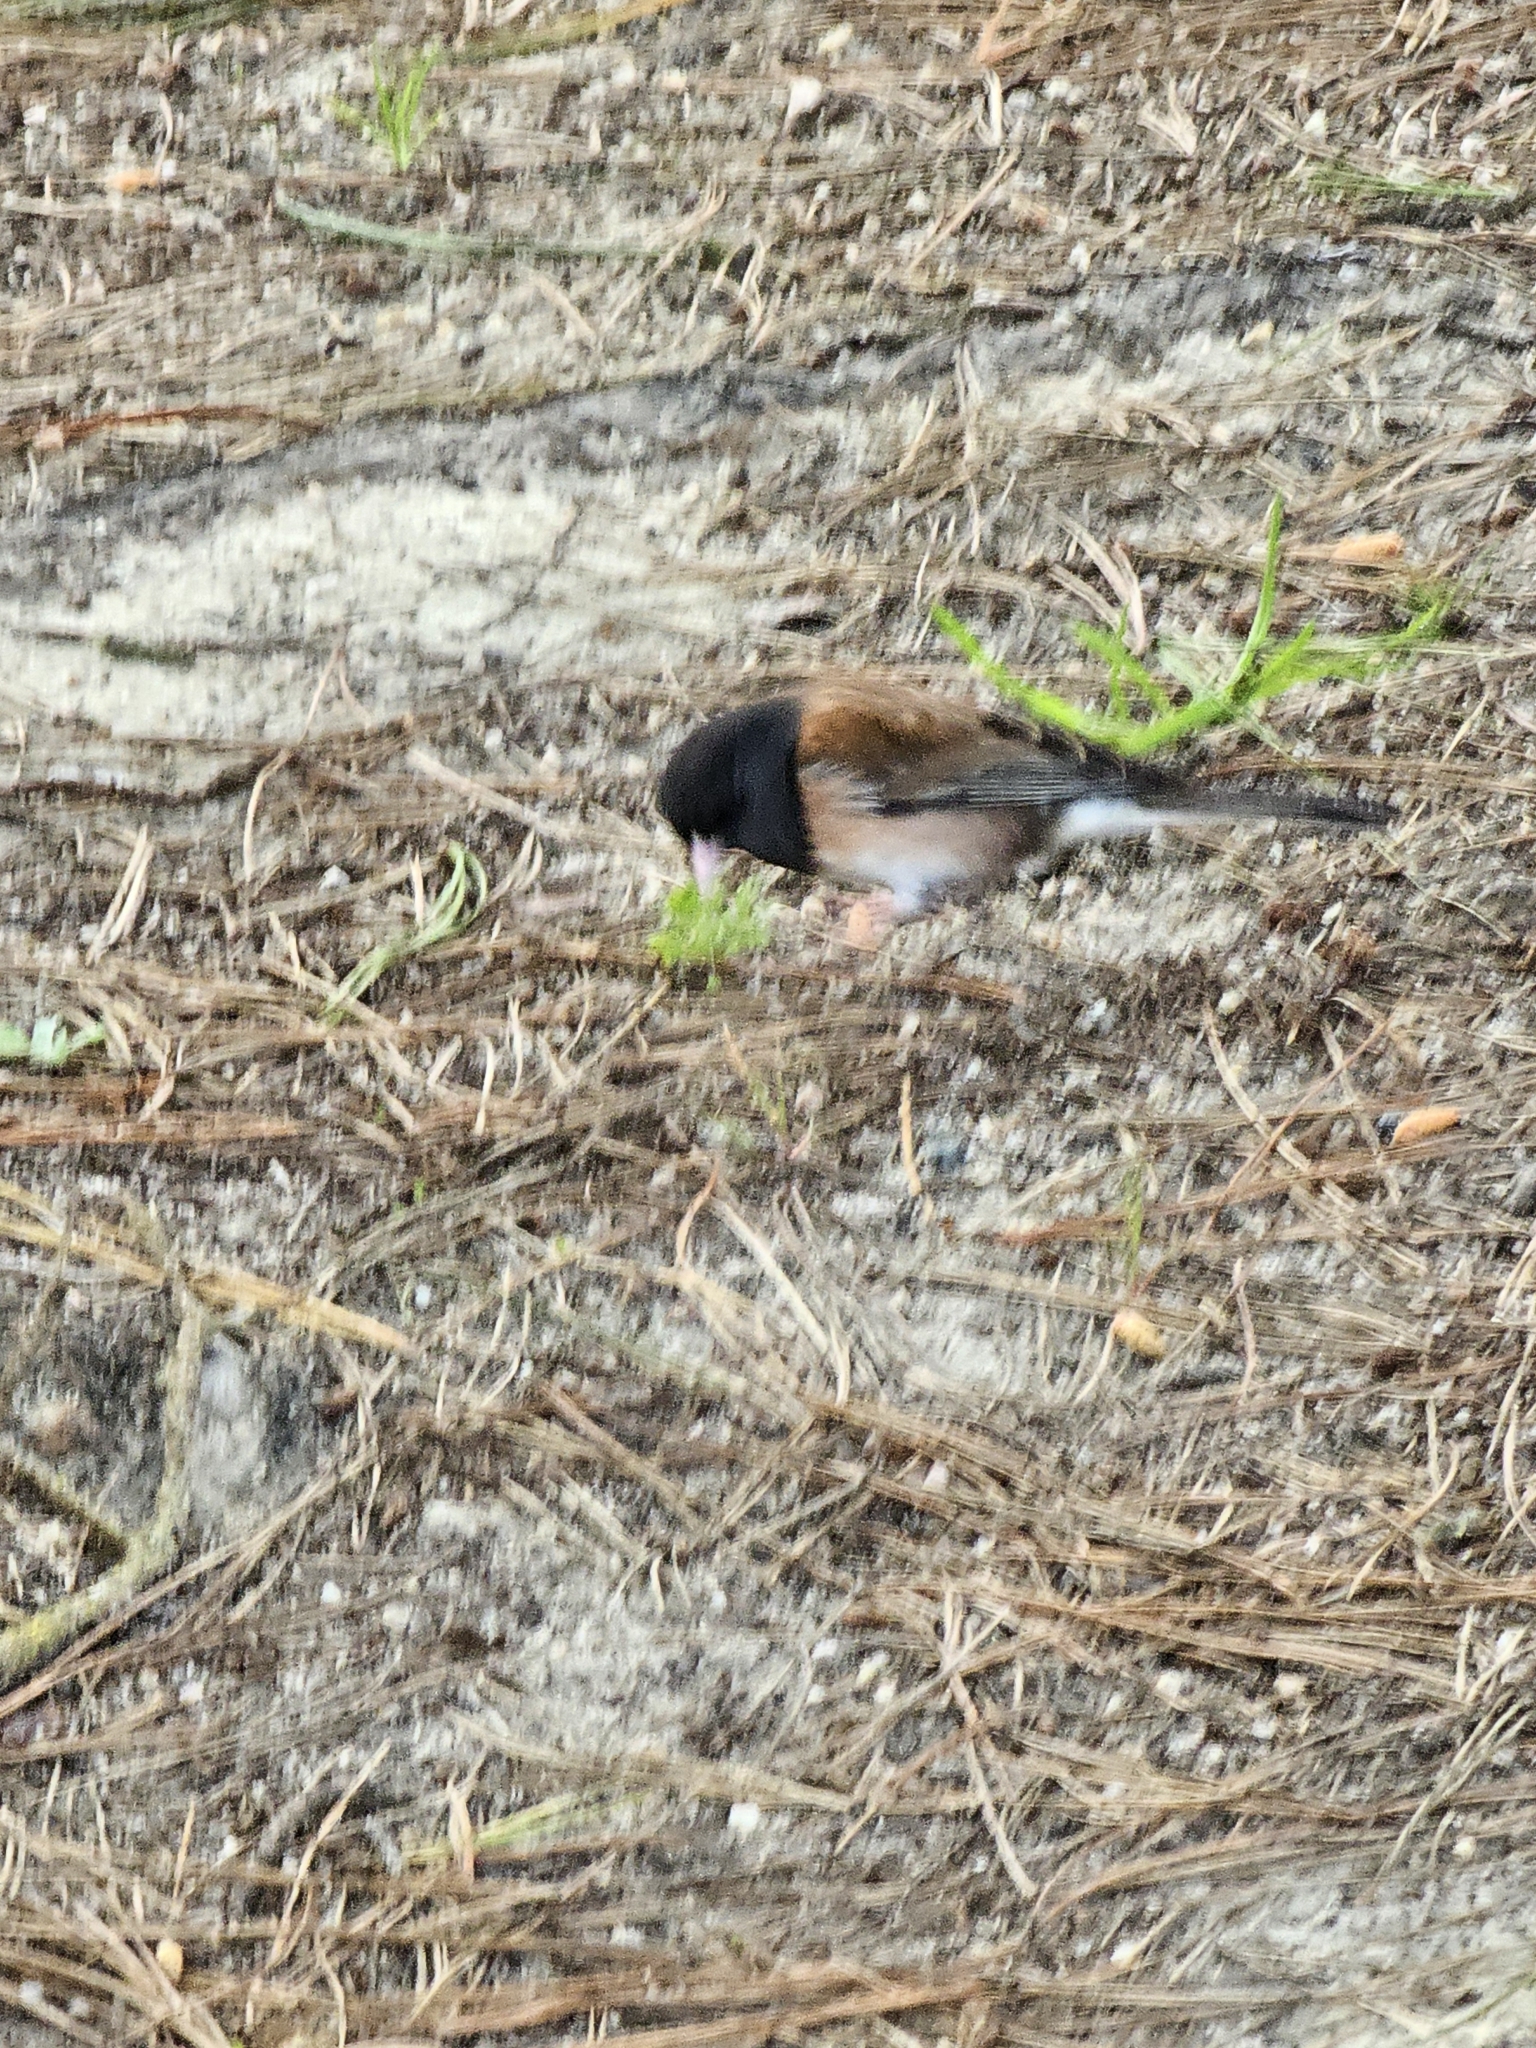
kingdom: Animalia
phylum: Chordata
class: Aves
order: Passeriformes
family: Passerellidae
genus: Junco
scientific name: Junco hyemalis
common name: Dark-eyed junco
